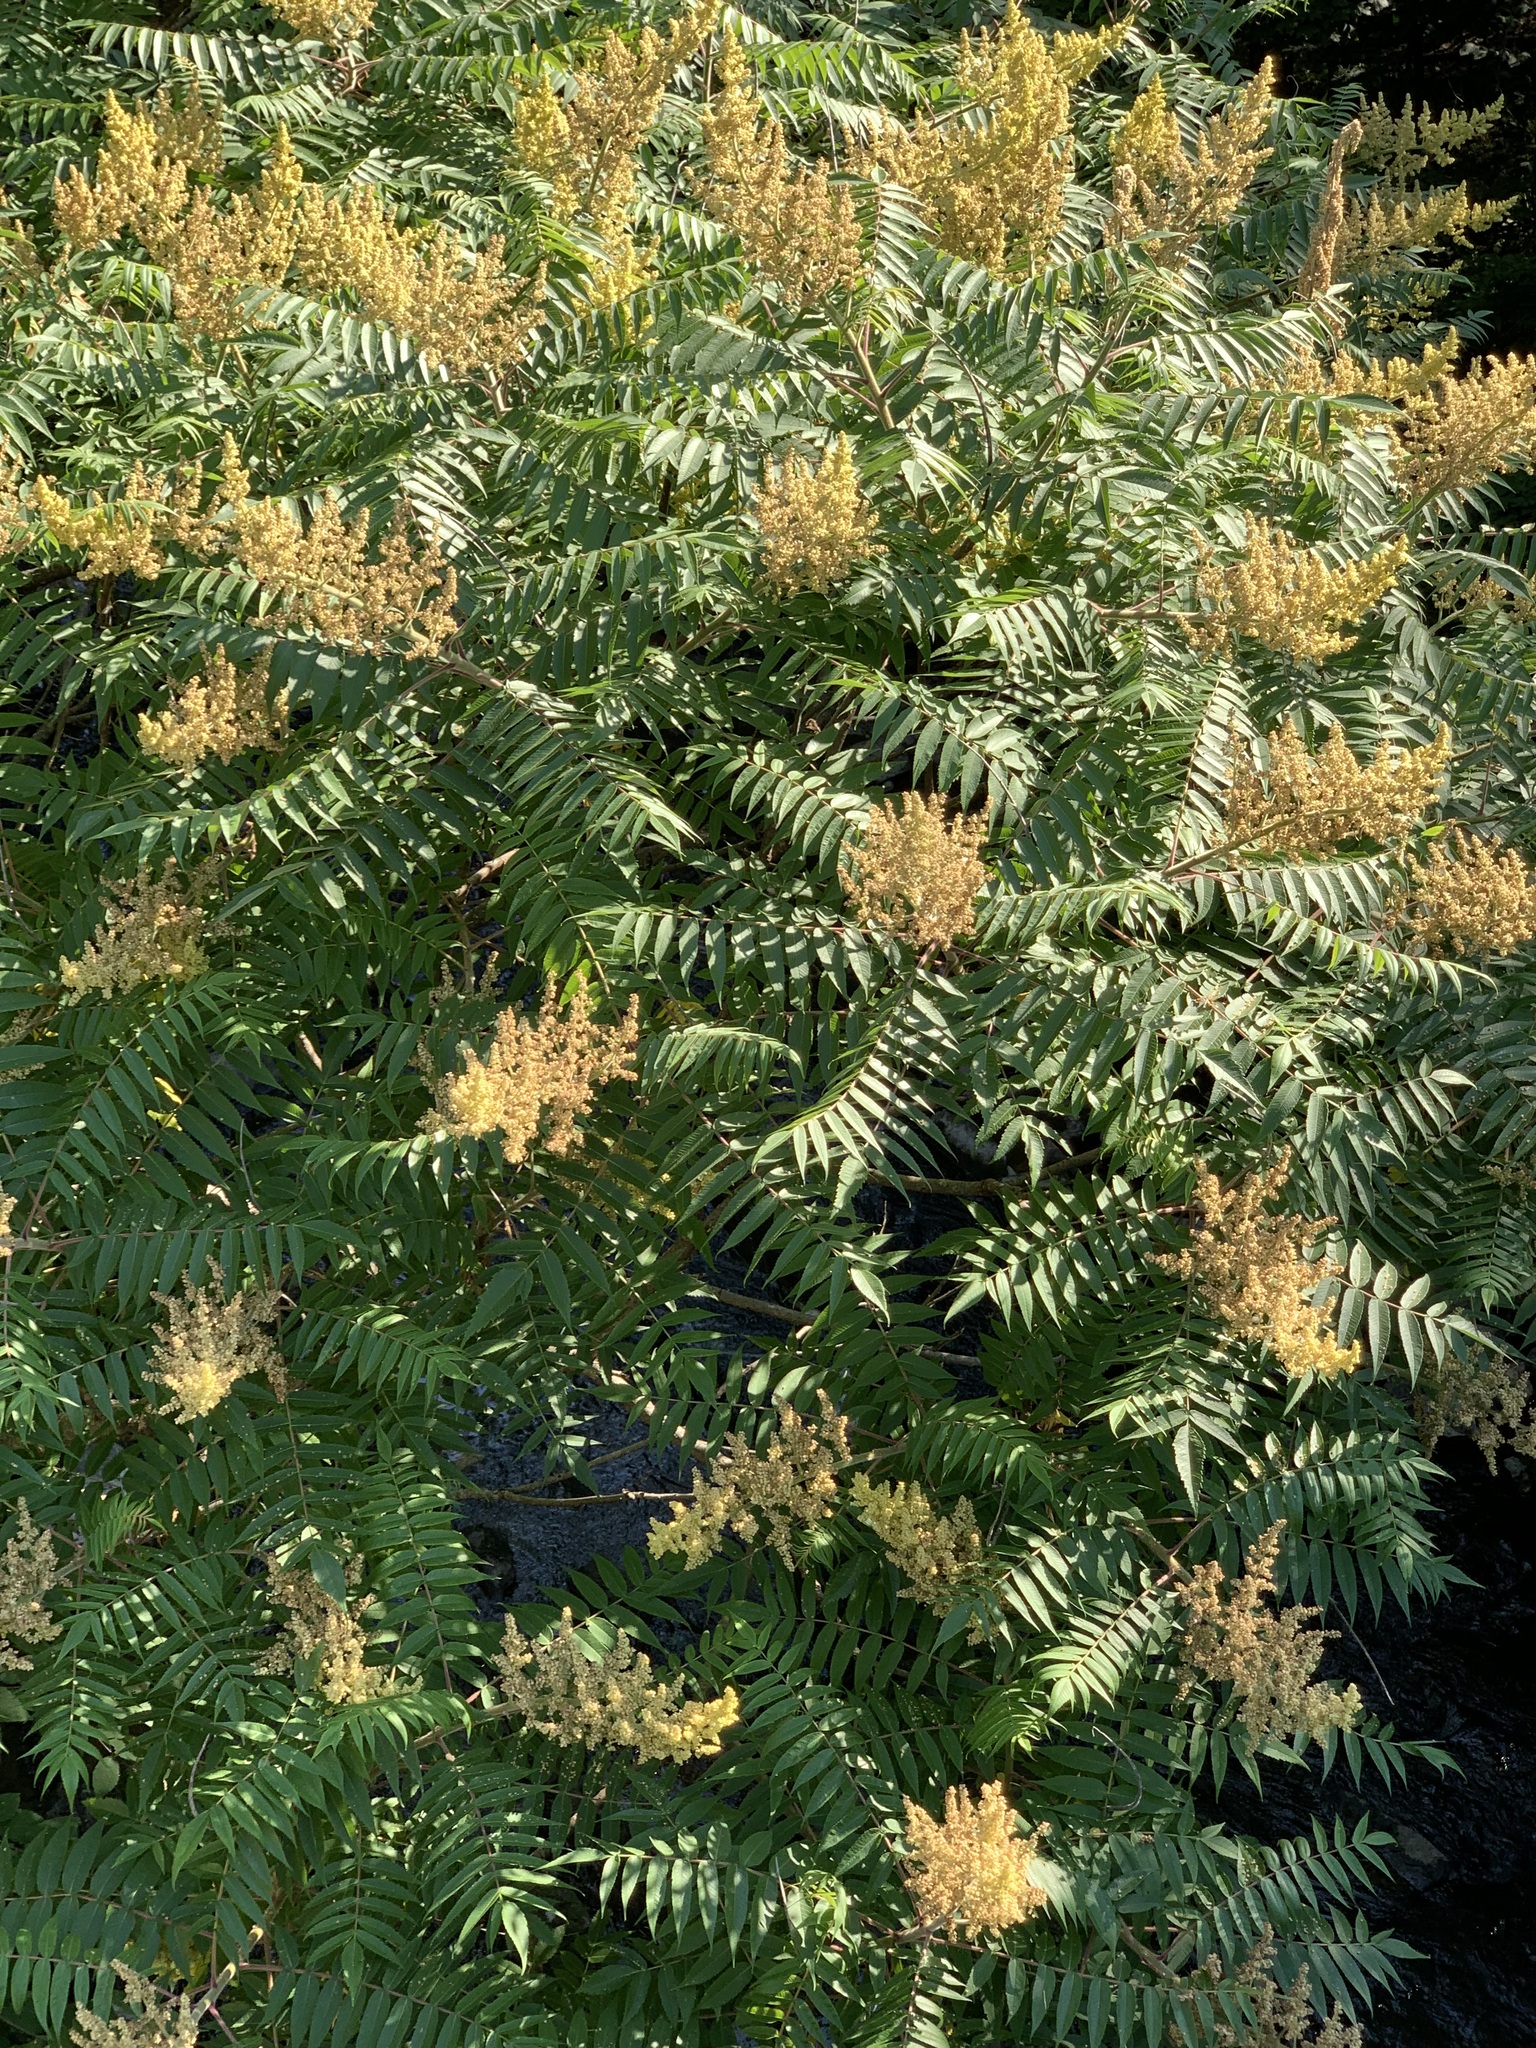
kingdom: Plantae
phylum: Tracheophyta
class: Magnoliopsida
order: Sapindales
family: Anacardiaceae
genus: Rhus
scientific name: Rhus typhina
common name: Staghorn sumac
